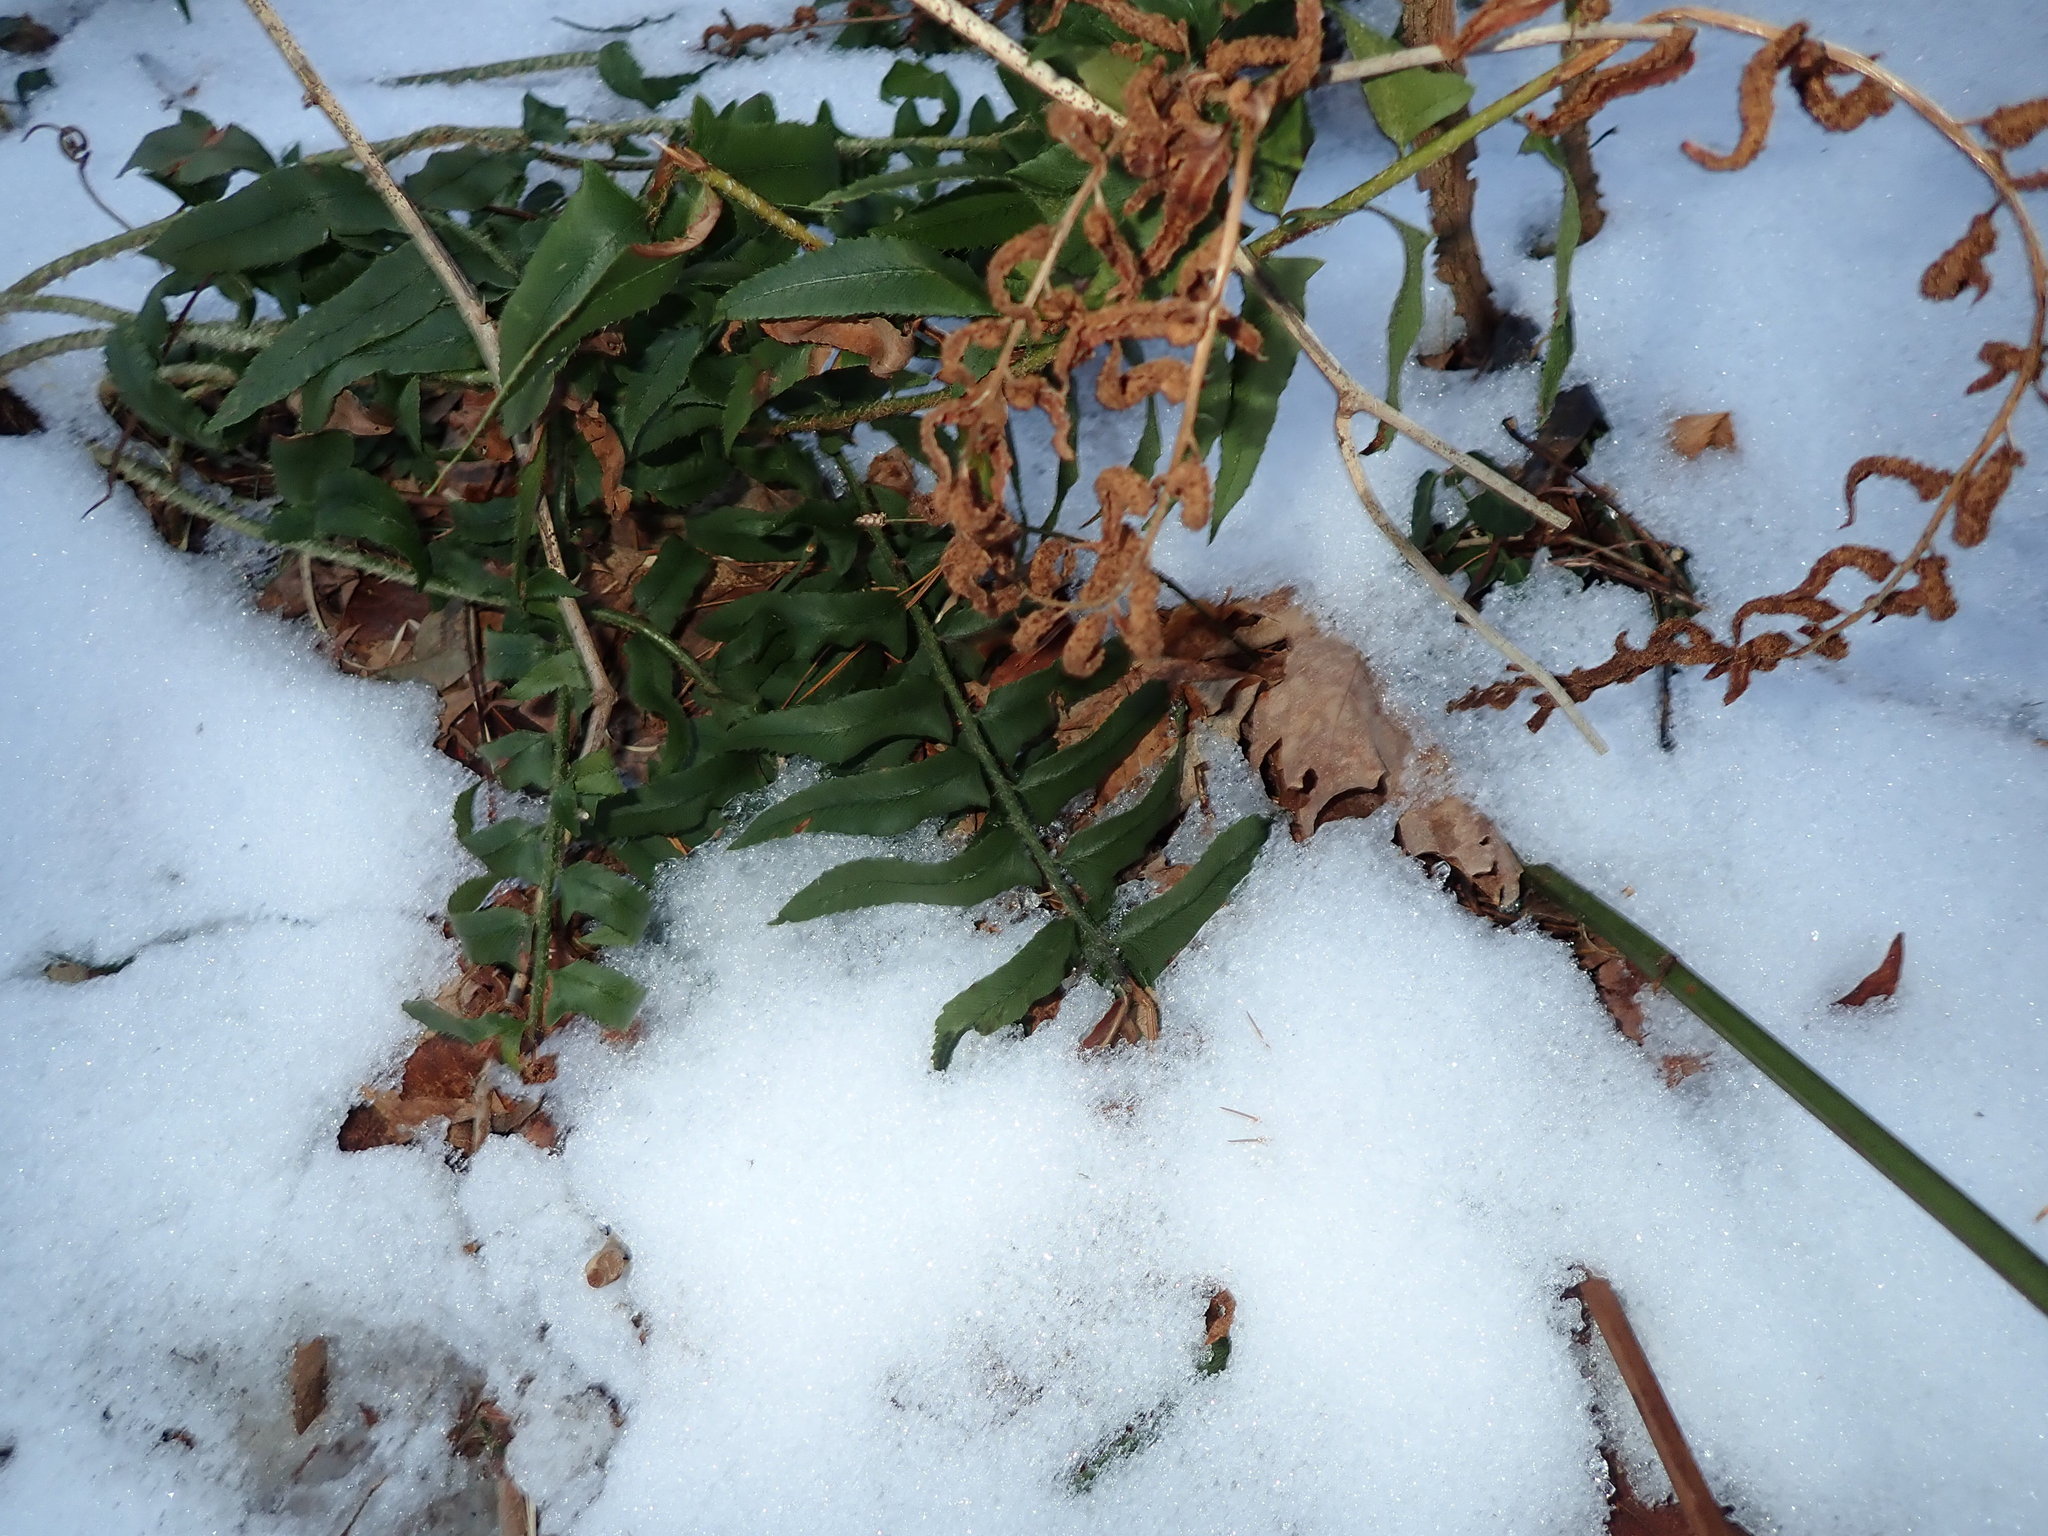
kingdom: Plantae
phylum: Tracheophyta
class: Polypodiopsida
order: Polypodiales
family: Dryopteridaceae
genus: Polystichum
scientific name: Polystichum acrostichoides
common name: Christmas fern
